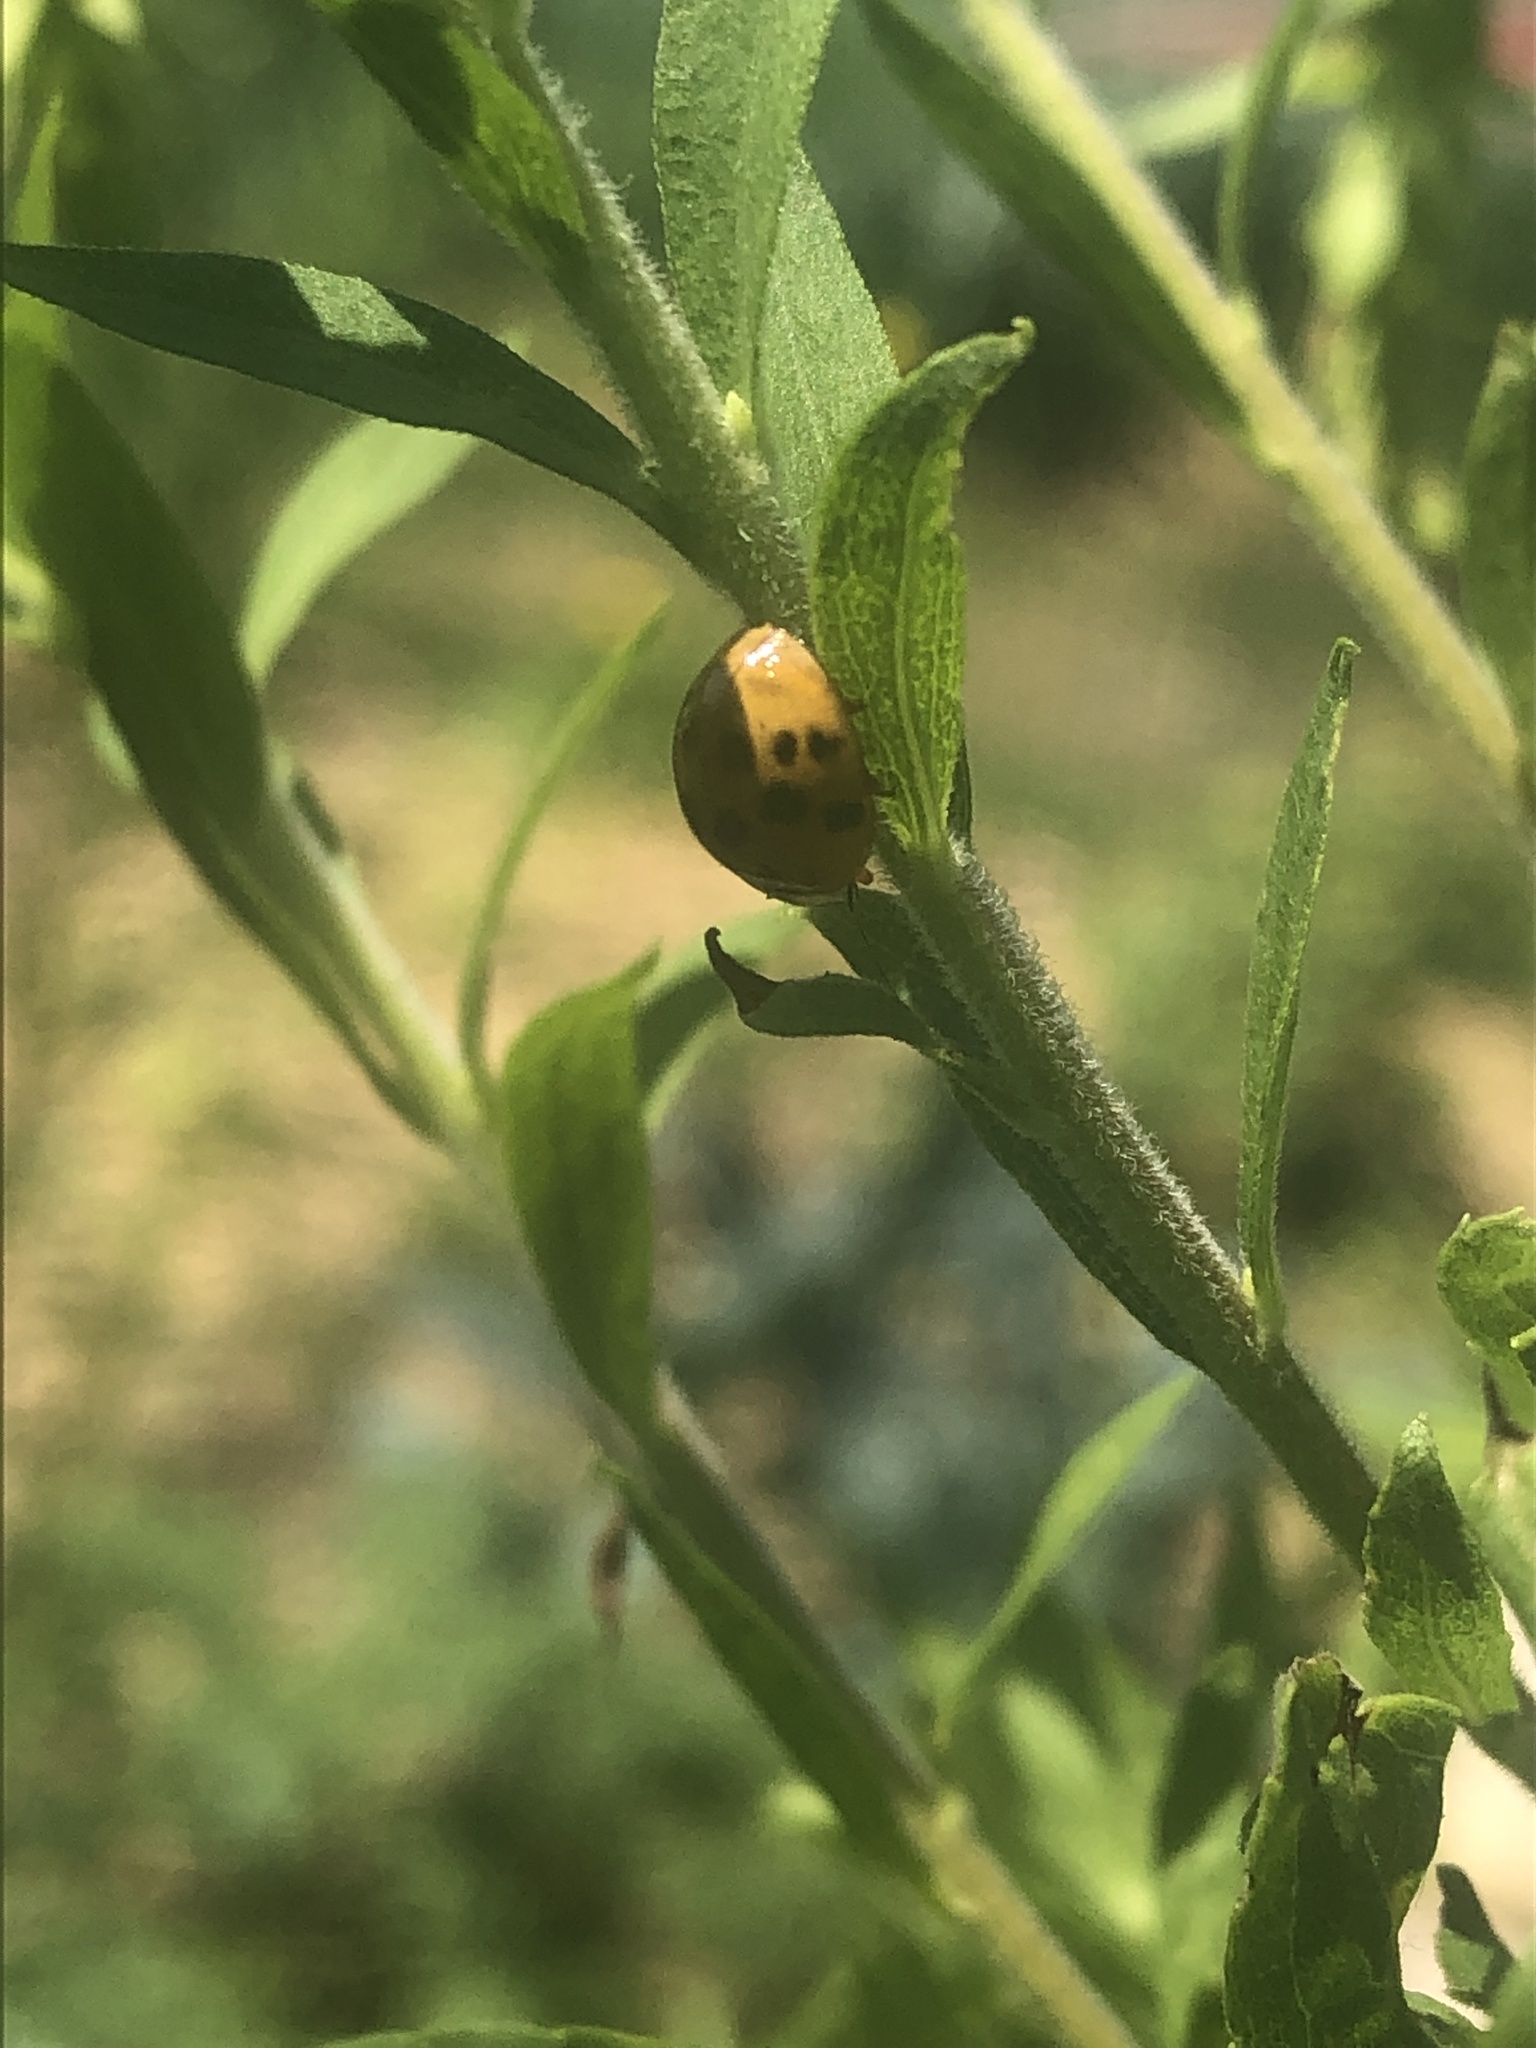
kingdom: Animalia
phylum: Arthropoda
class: Insecta
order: Coleoptera
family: Coccinellidae
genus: Harmonia
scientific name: Harmonia axyridis
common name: Harlequin ladybird
